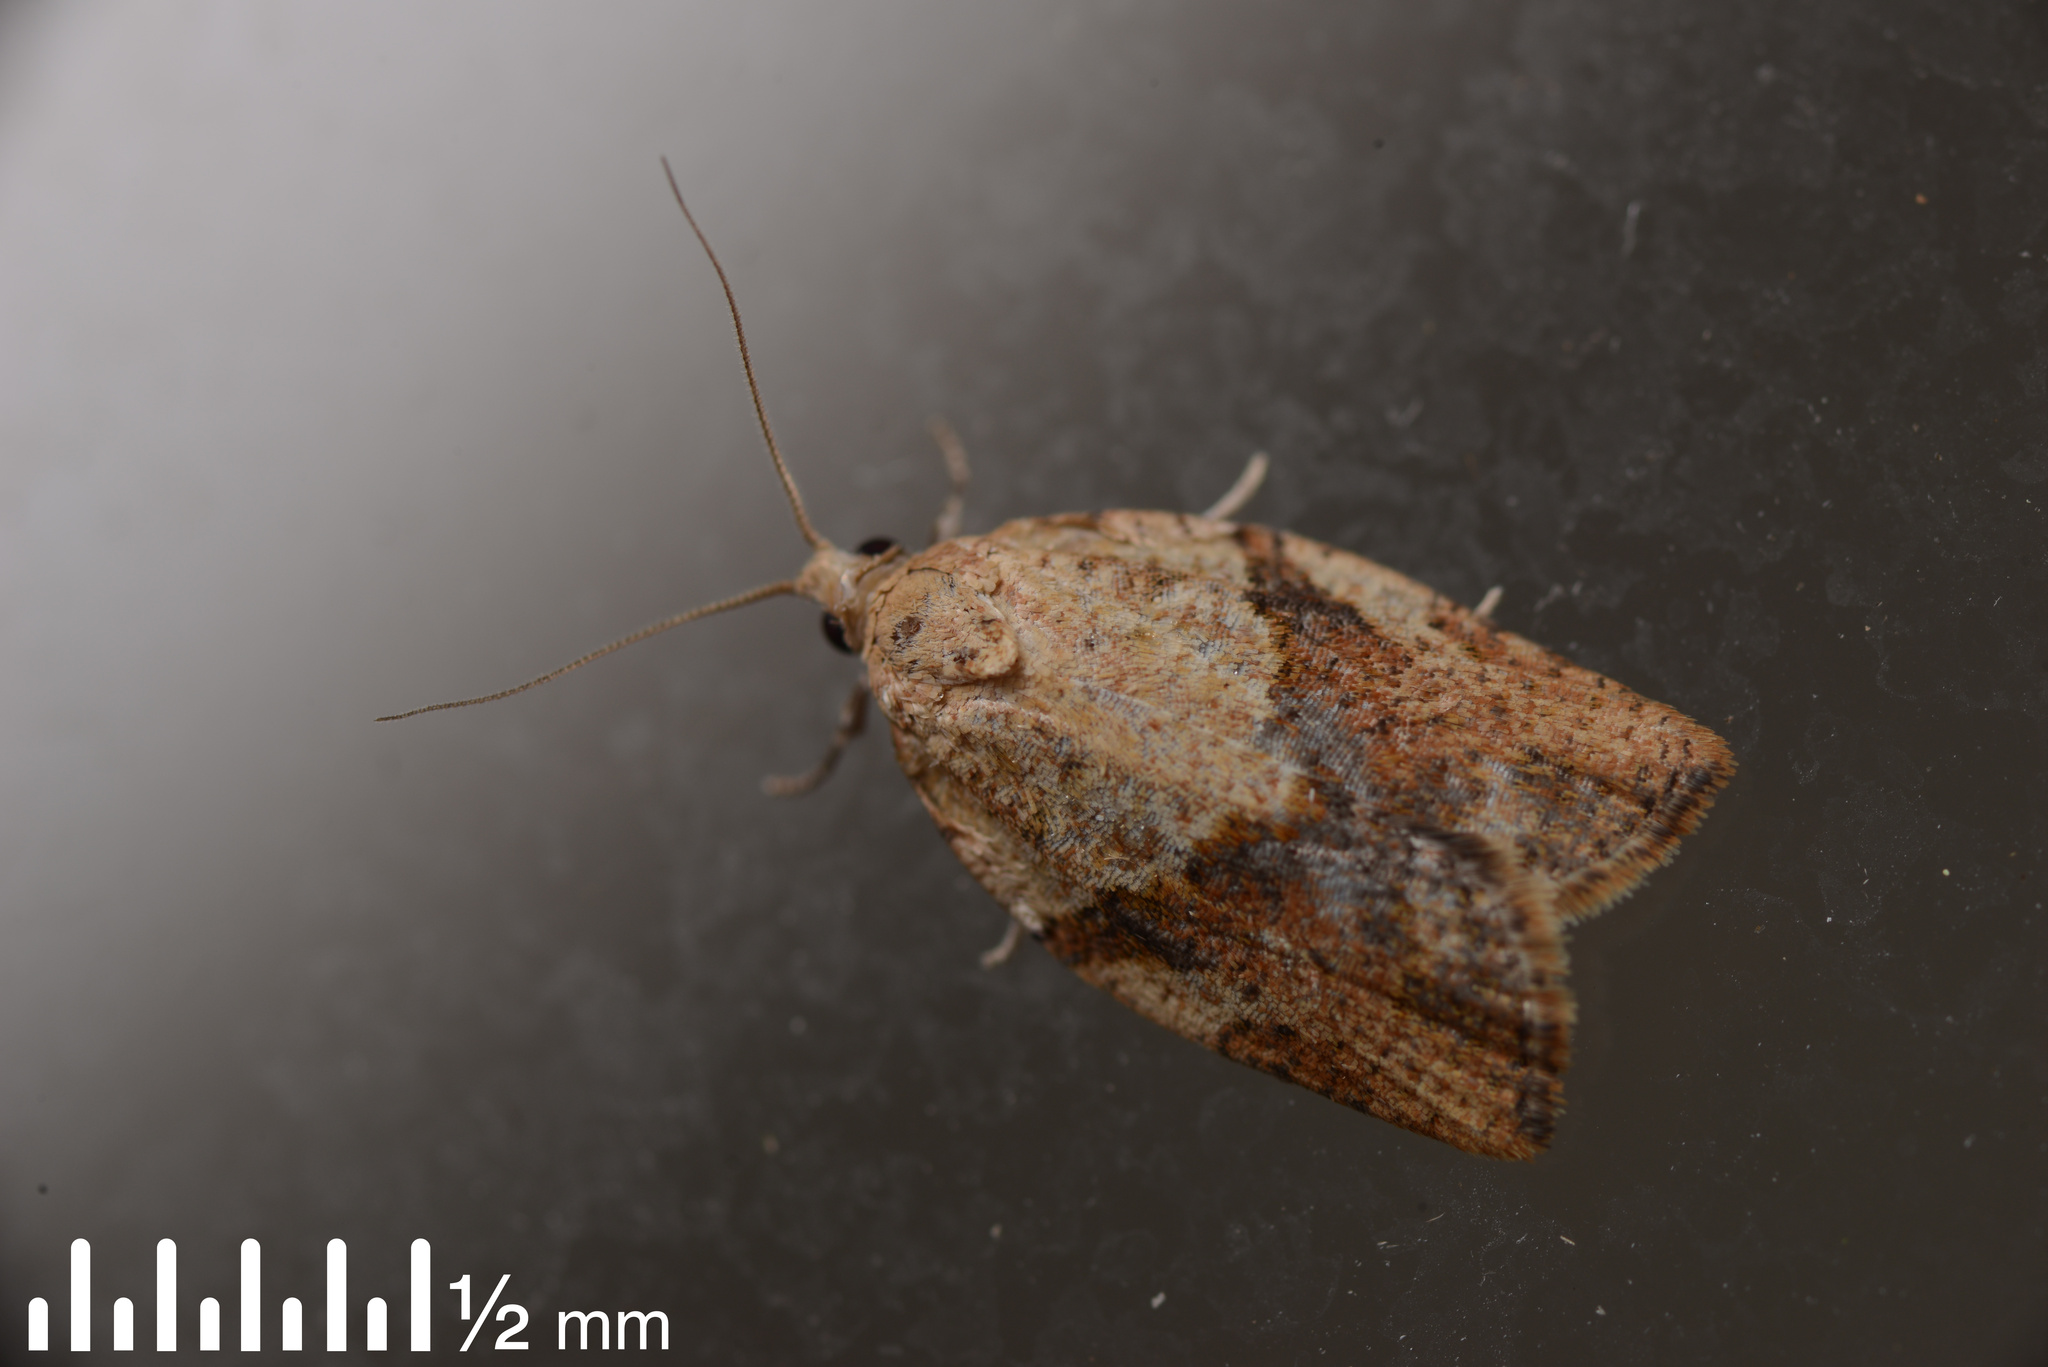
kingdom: Animalia
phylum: Arthropoda
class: Insecta
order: Lepidoptera
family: Tortricidae
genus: Epiphyas
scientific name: Epiphyas postvittana
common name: Light brown apple moth
